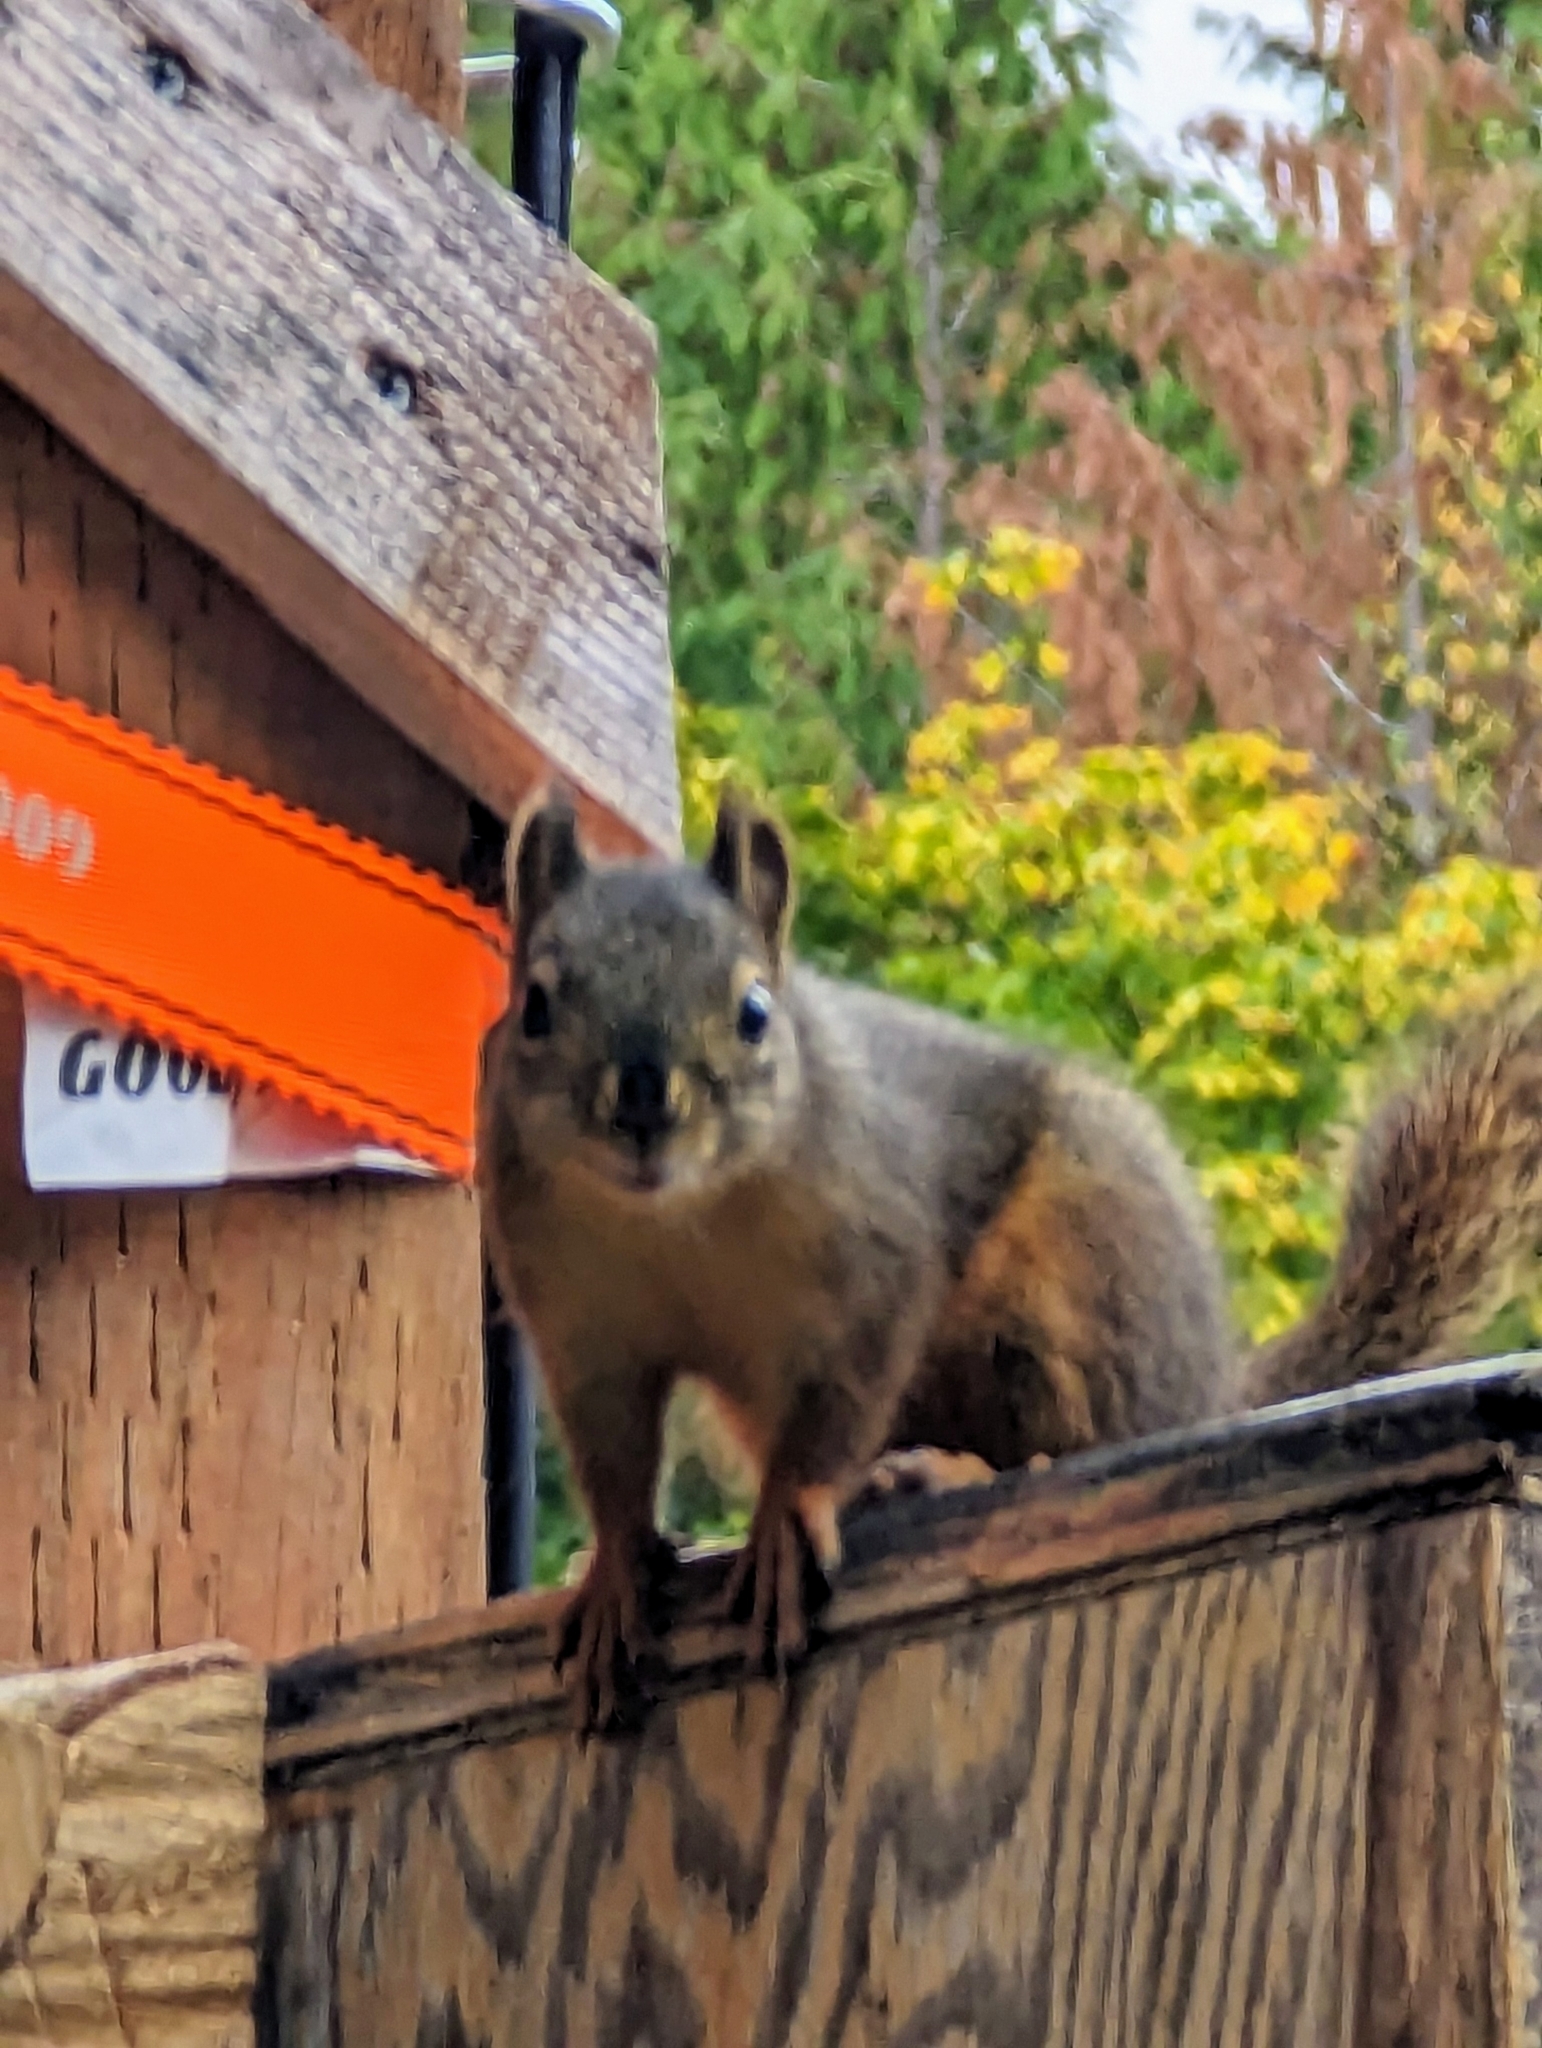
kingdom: Animalia
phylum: Chordata
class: Mammalia
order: Rodentia
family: Sciuridae
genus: Tamiasciurus
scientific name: Tamiasciurus douglasii
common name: Douglas's squirrel
